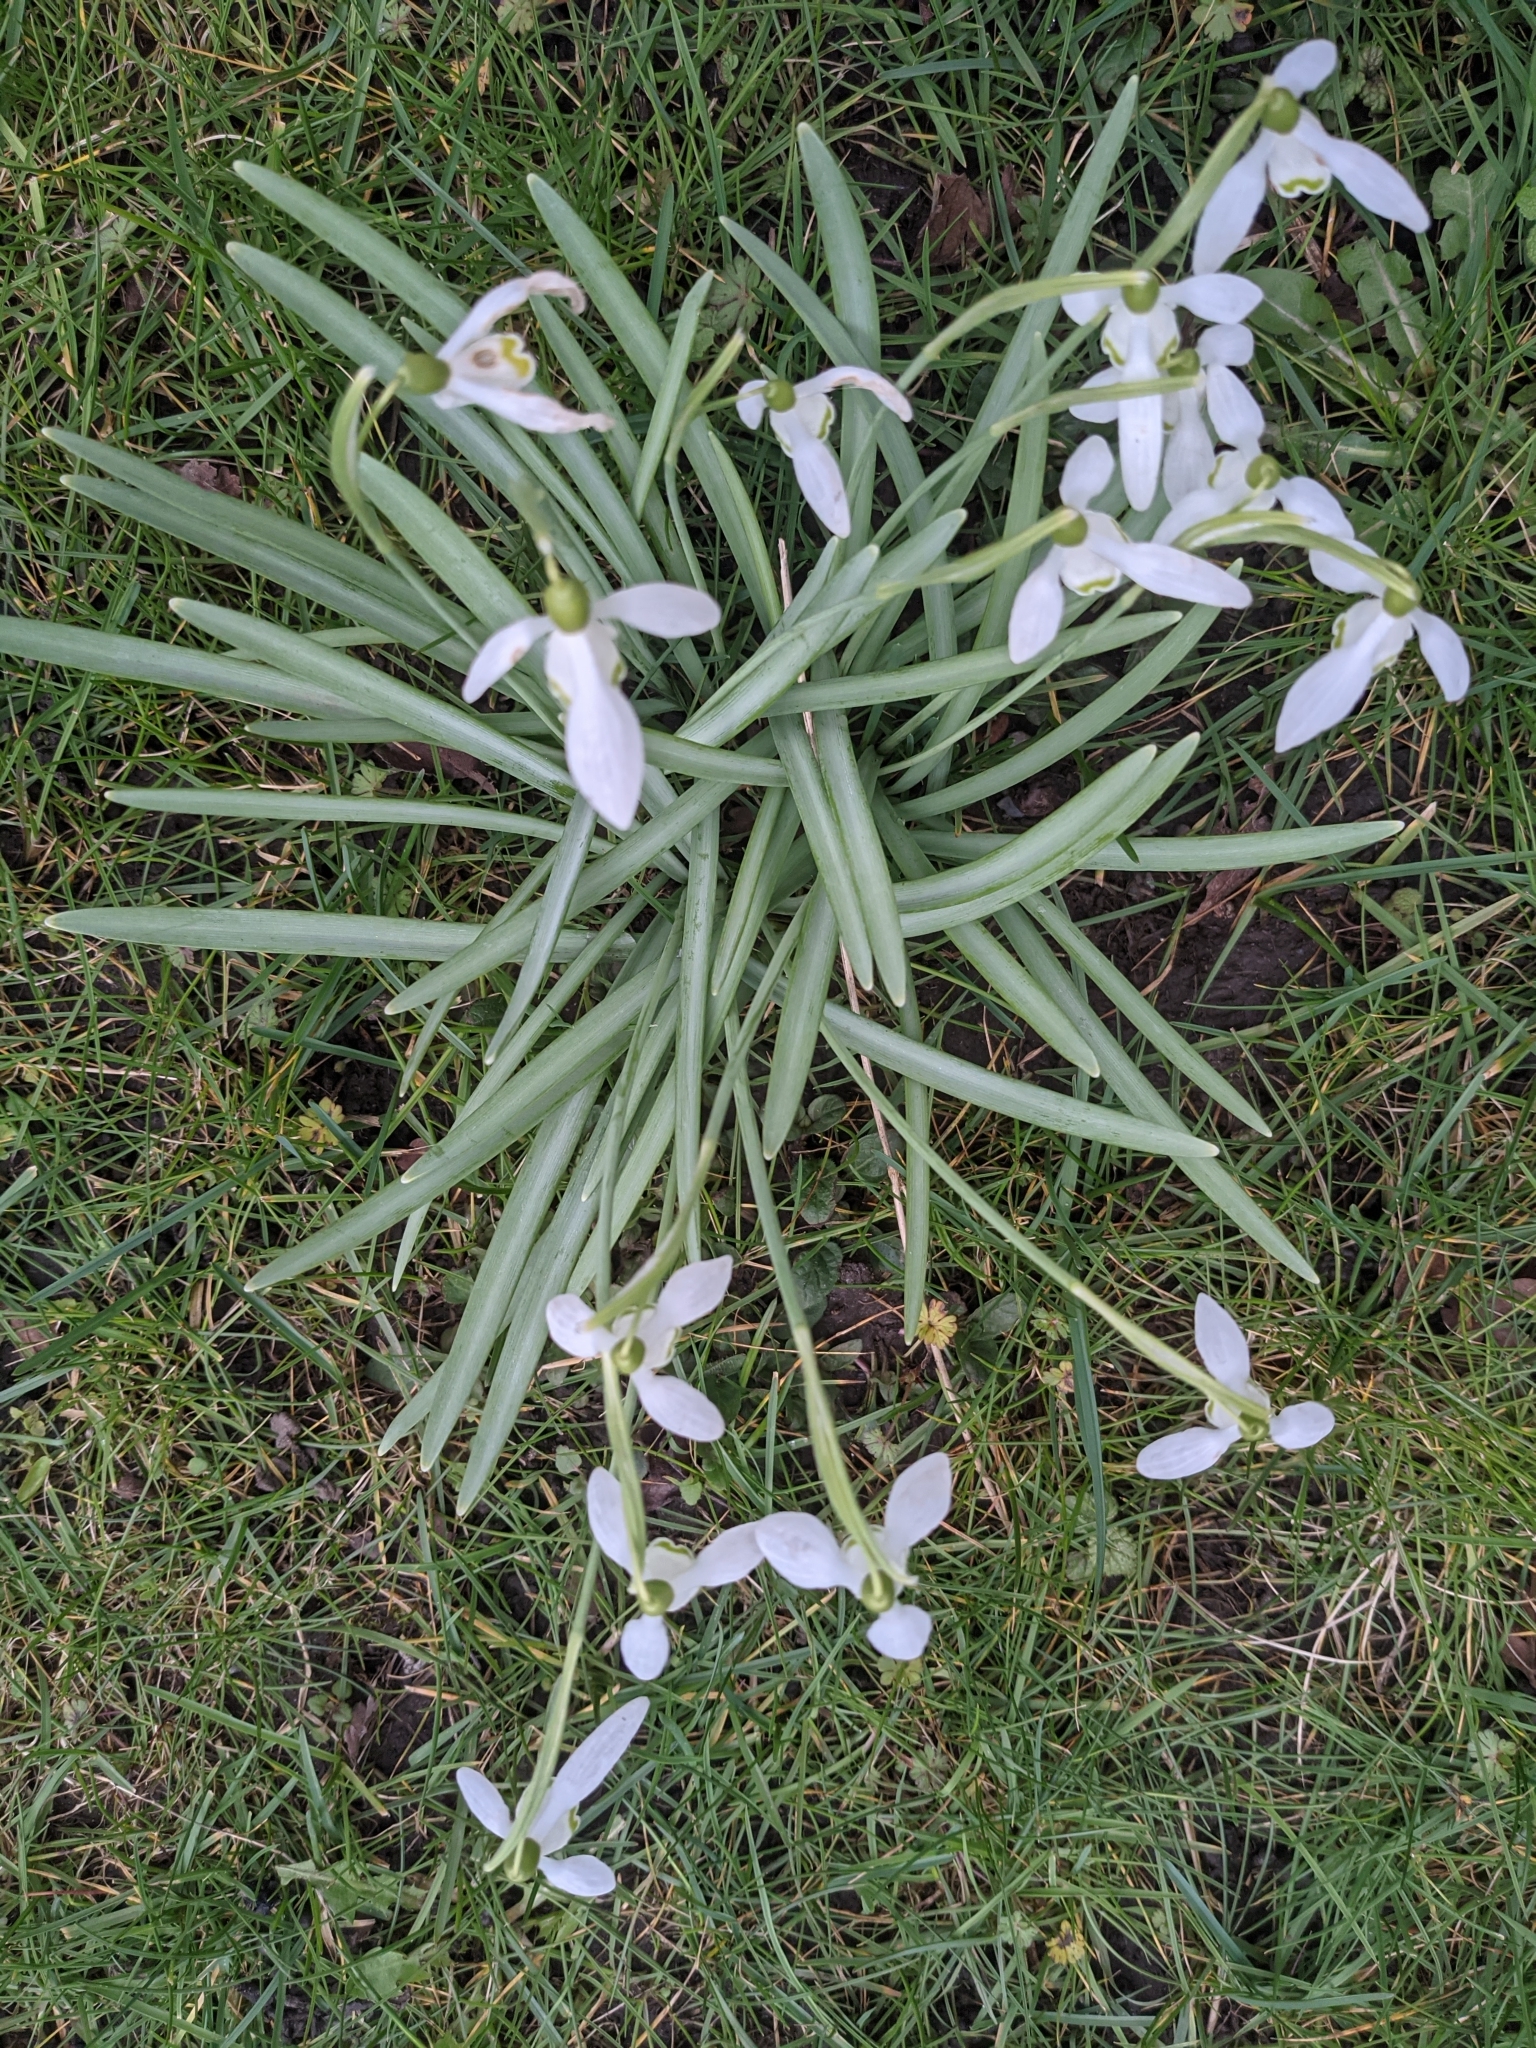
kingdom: Plantae
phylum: Tracheophyta
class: Liliopsida
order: Asparagales
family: Amaryllidaceae
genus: Galanthus
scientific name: Galanthus nivalis
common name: Snowdrop
